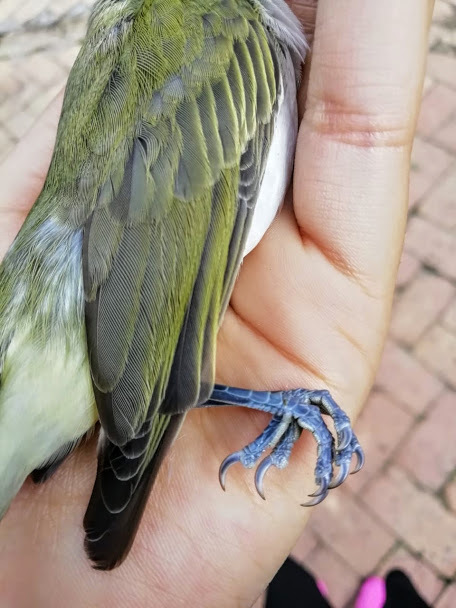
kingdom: Animalia
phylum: Chordata
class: Aves
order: Passeriformes
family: Vireonidae
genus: Vireo
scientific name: Vireo olivaceus
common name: Red-eyed vireo
